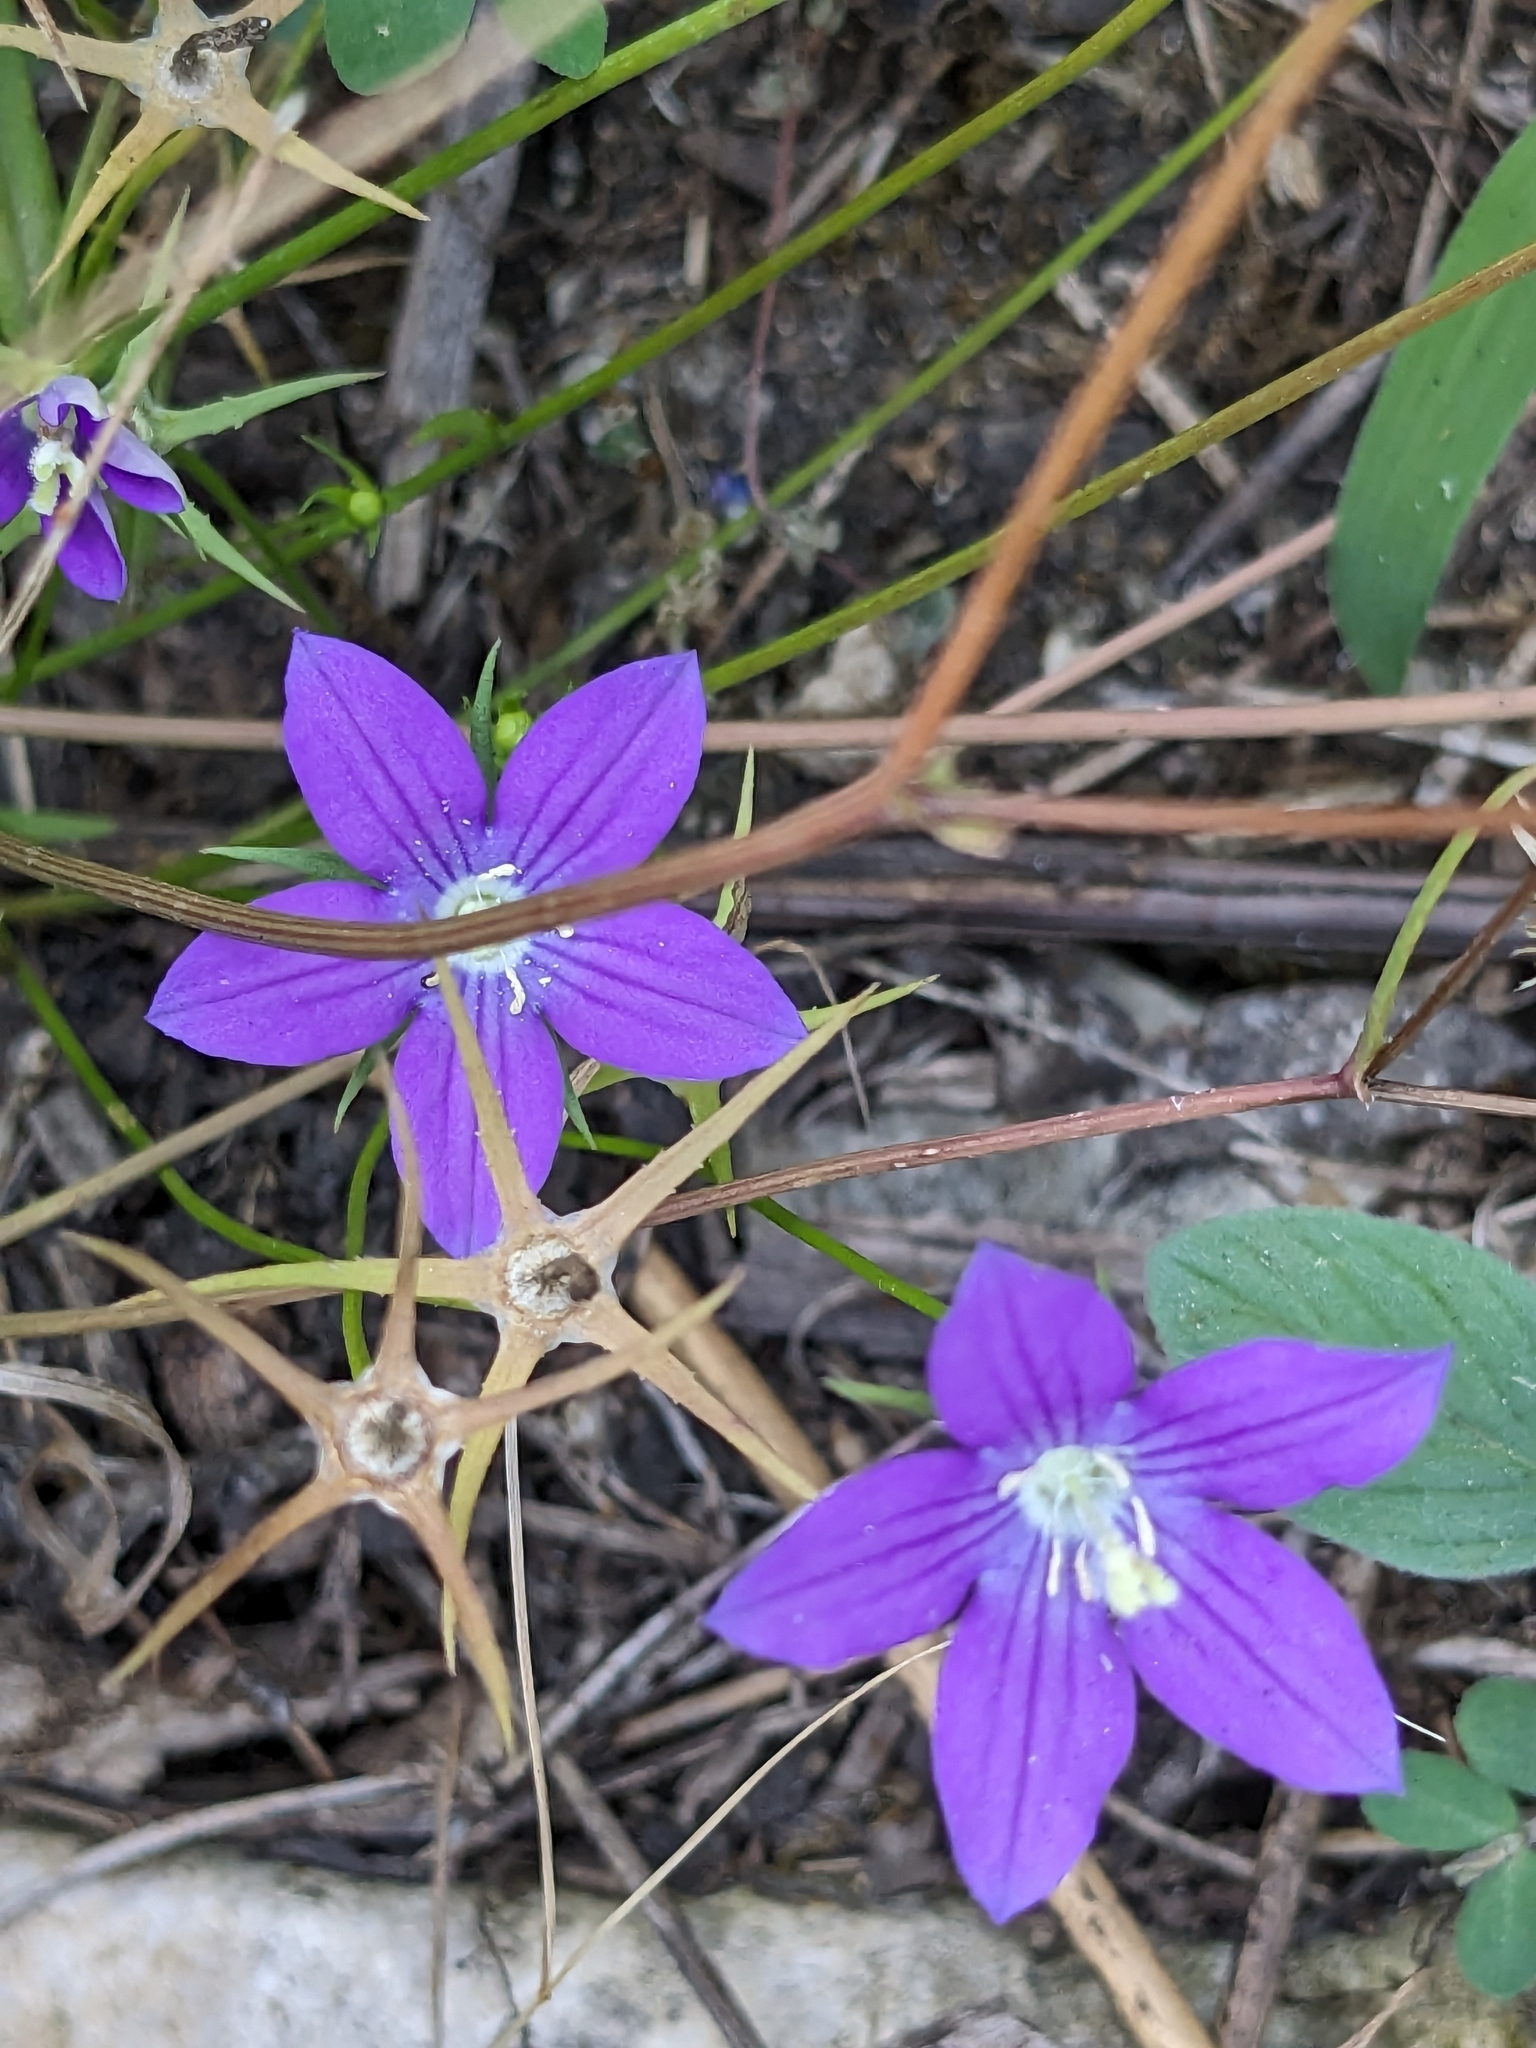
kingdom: Plantae
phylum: Tracheophyta
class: Magnoliopsida
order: Asterales
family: Campanulaceae
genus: Campanula
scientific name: Campanula ramosissima
